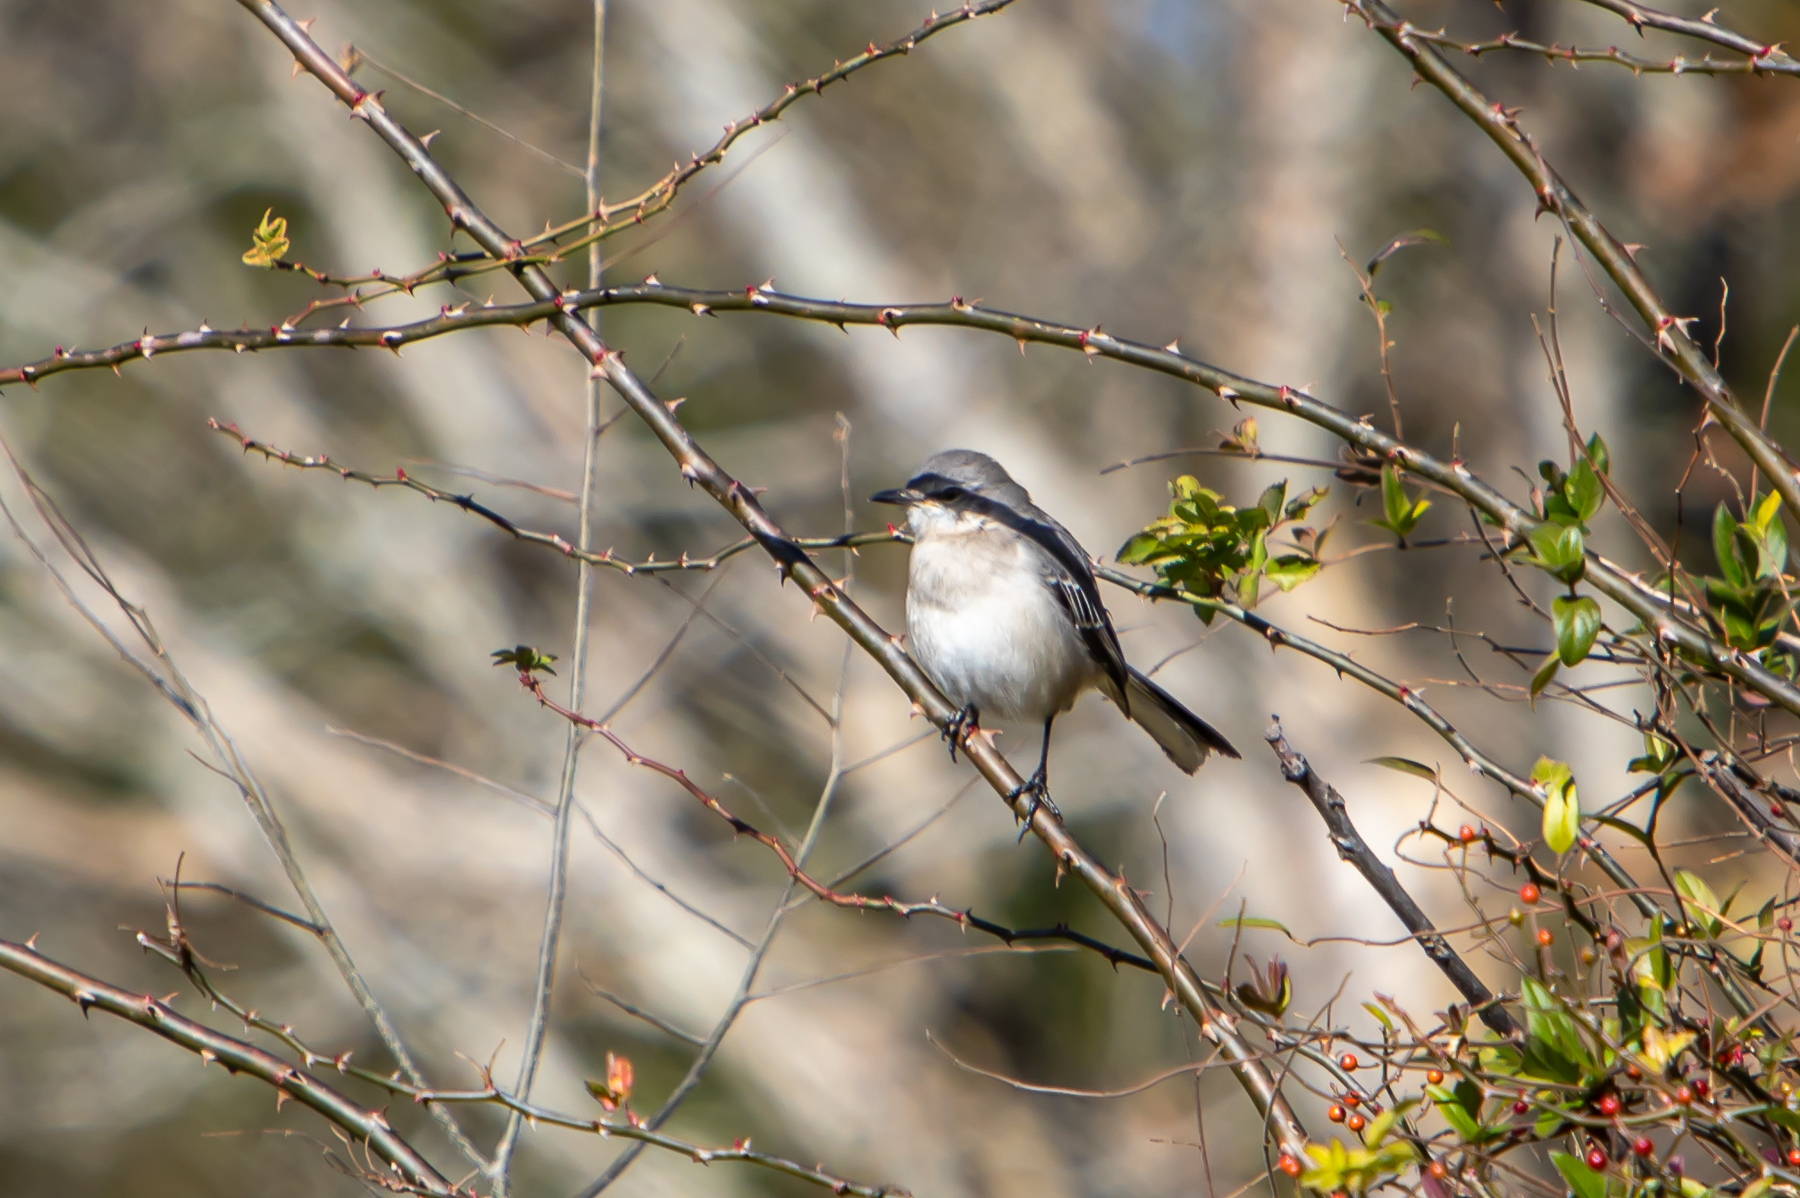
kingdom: Animalia
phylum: Chordata
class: Aves
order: Passeriformes
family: Mimidae
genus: Mimus
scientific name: Mimus polyglottos
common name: Northern mockingbird
